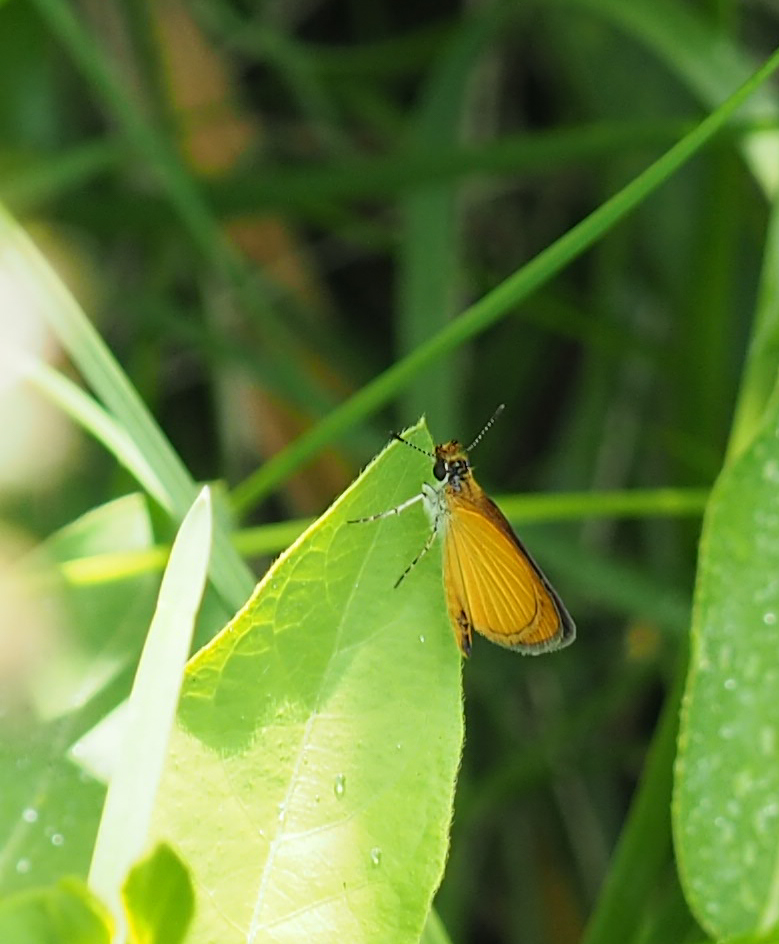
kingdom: Animalia
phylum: Arthropoda
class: Insecta
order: Lepidoptera
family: Hesperiidae
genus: Ancyloxypha
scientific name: Ancyloxypha numitor
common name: Least skipper
